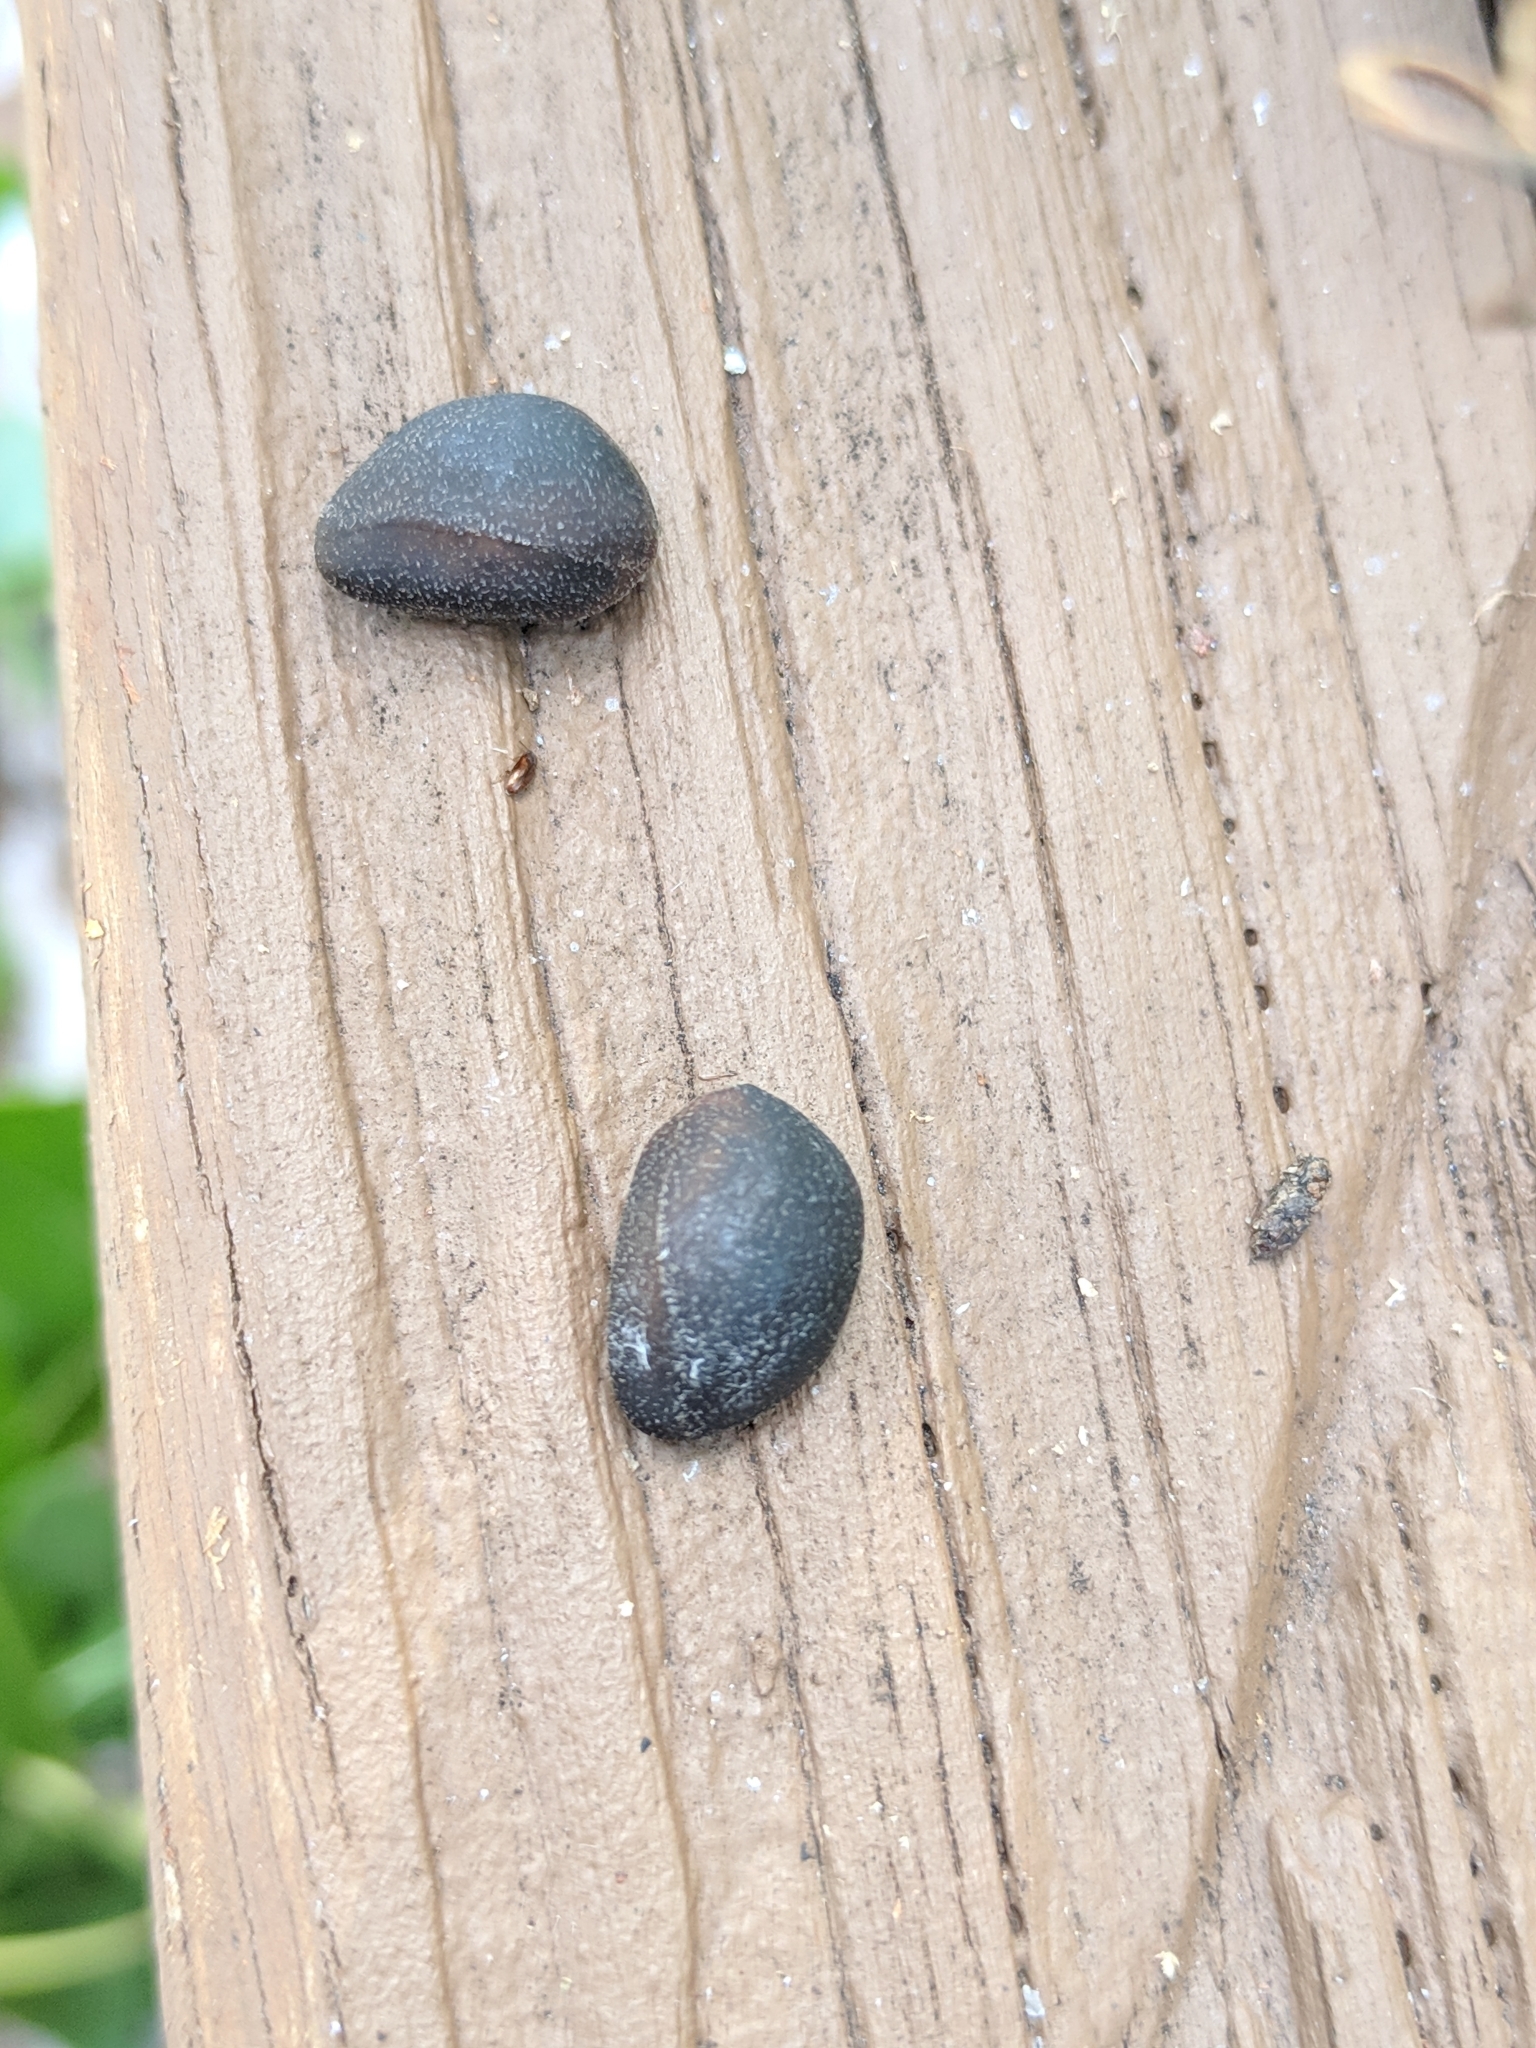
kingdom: Plantae
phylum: Tracheophyta
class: Magnoliopsida
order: Solanales
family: Convolvulaceae
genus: Ipomoea
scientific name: Ipomoea alba
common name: Moonflower
